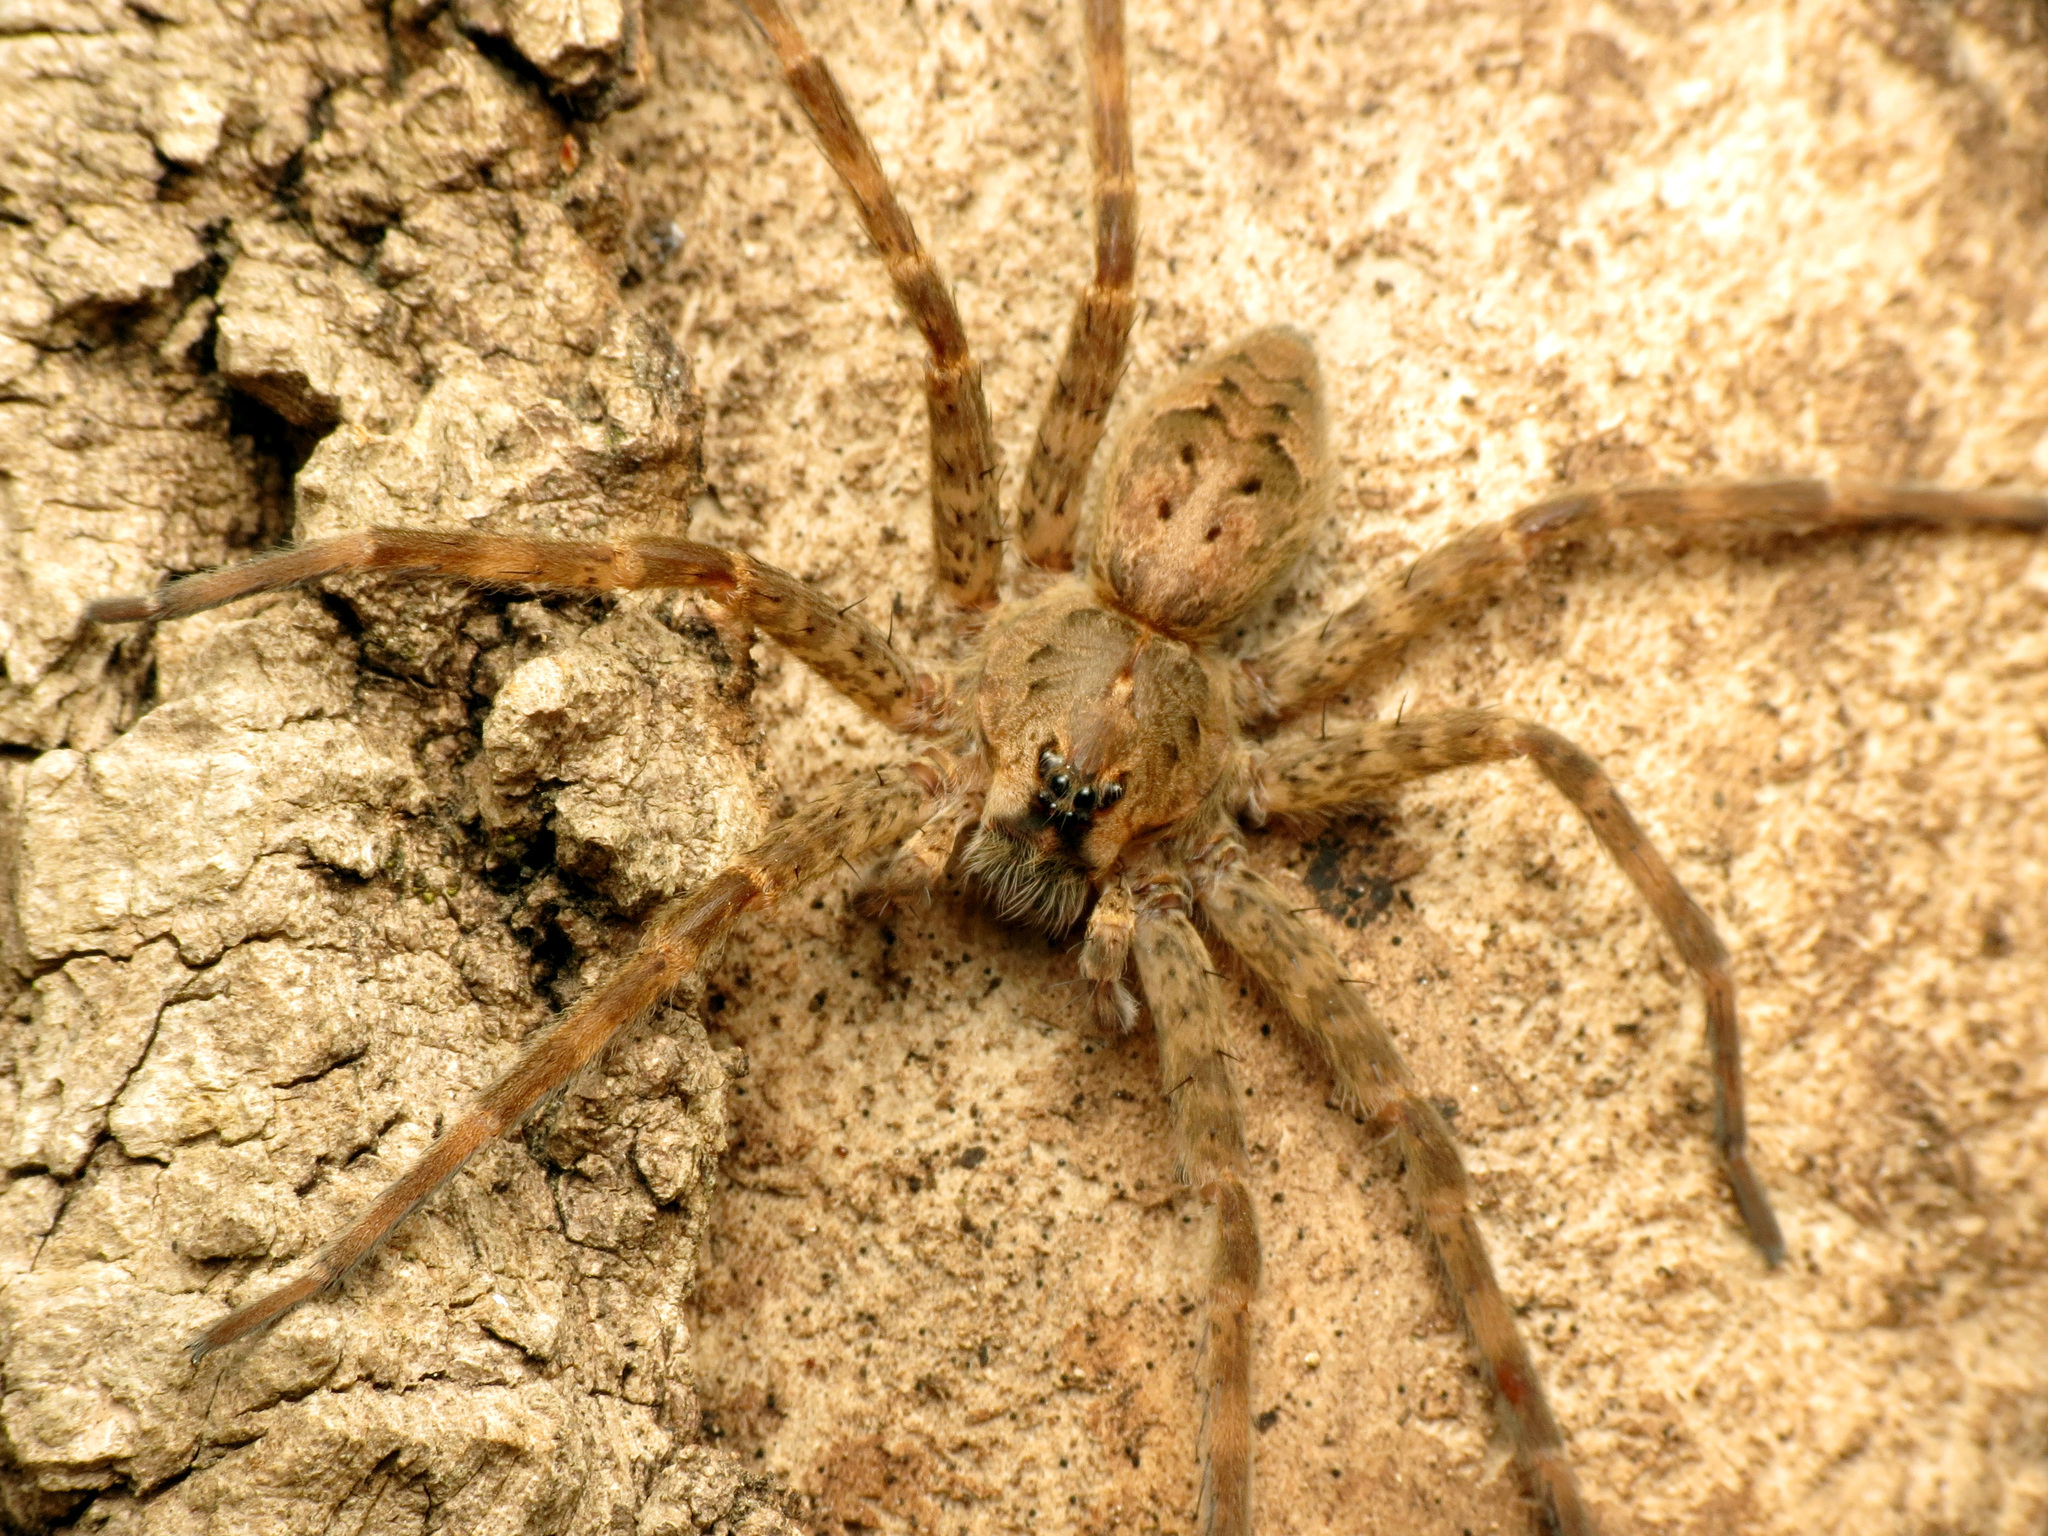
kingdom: Animalia
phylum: Arthropoda
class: Arachnida
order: Araneae
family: Pisauridae
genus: Dolomedes
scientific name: Dolomedes tenebrosus
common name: Dark fishing spider
